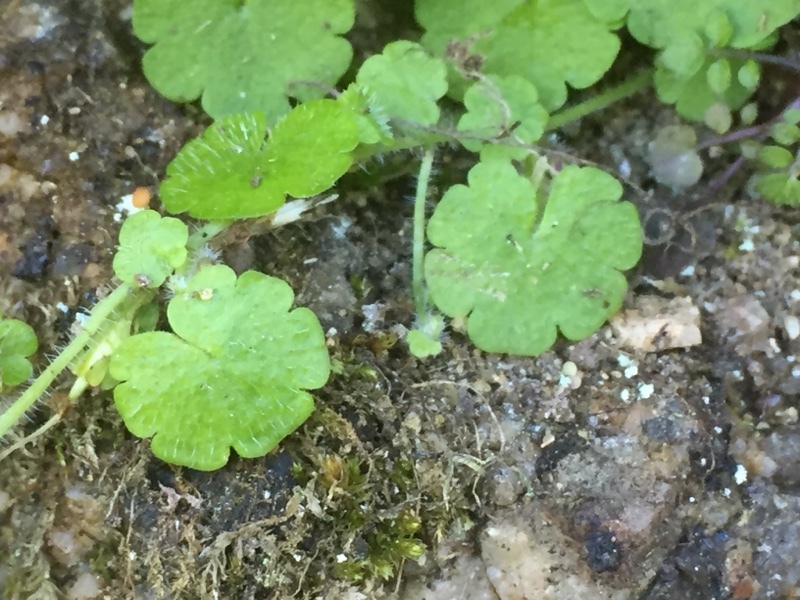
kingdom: Plantae
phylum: Tracheophyta
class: Magnoliopsida
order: Lamiales
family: Plantaginaceae
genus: Sibthorpia
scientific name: Sibthorpia europaea
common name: Cornish moneywort
